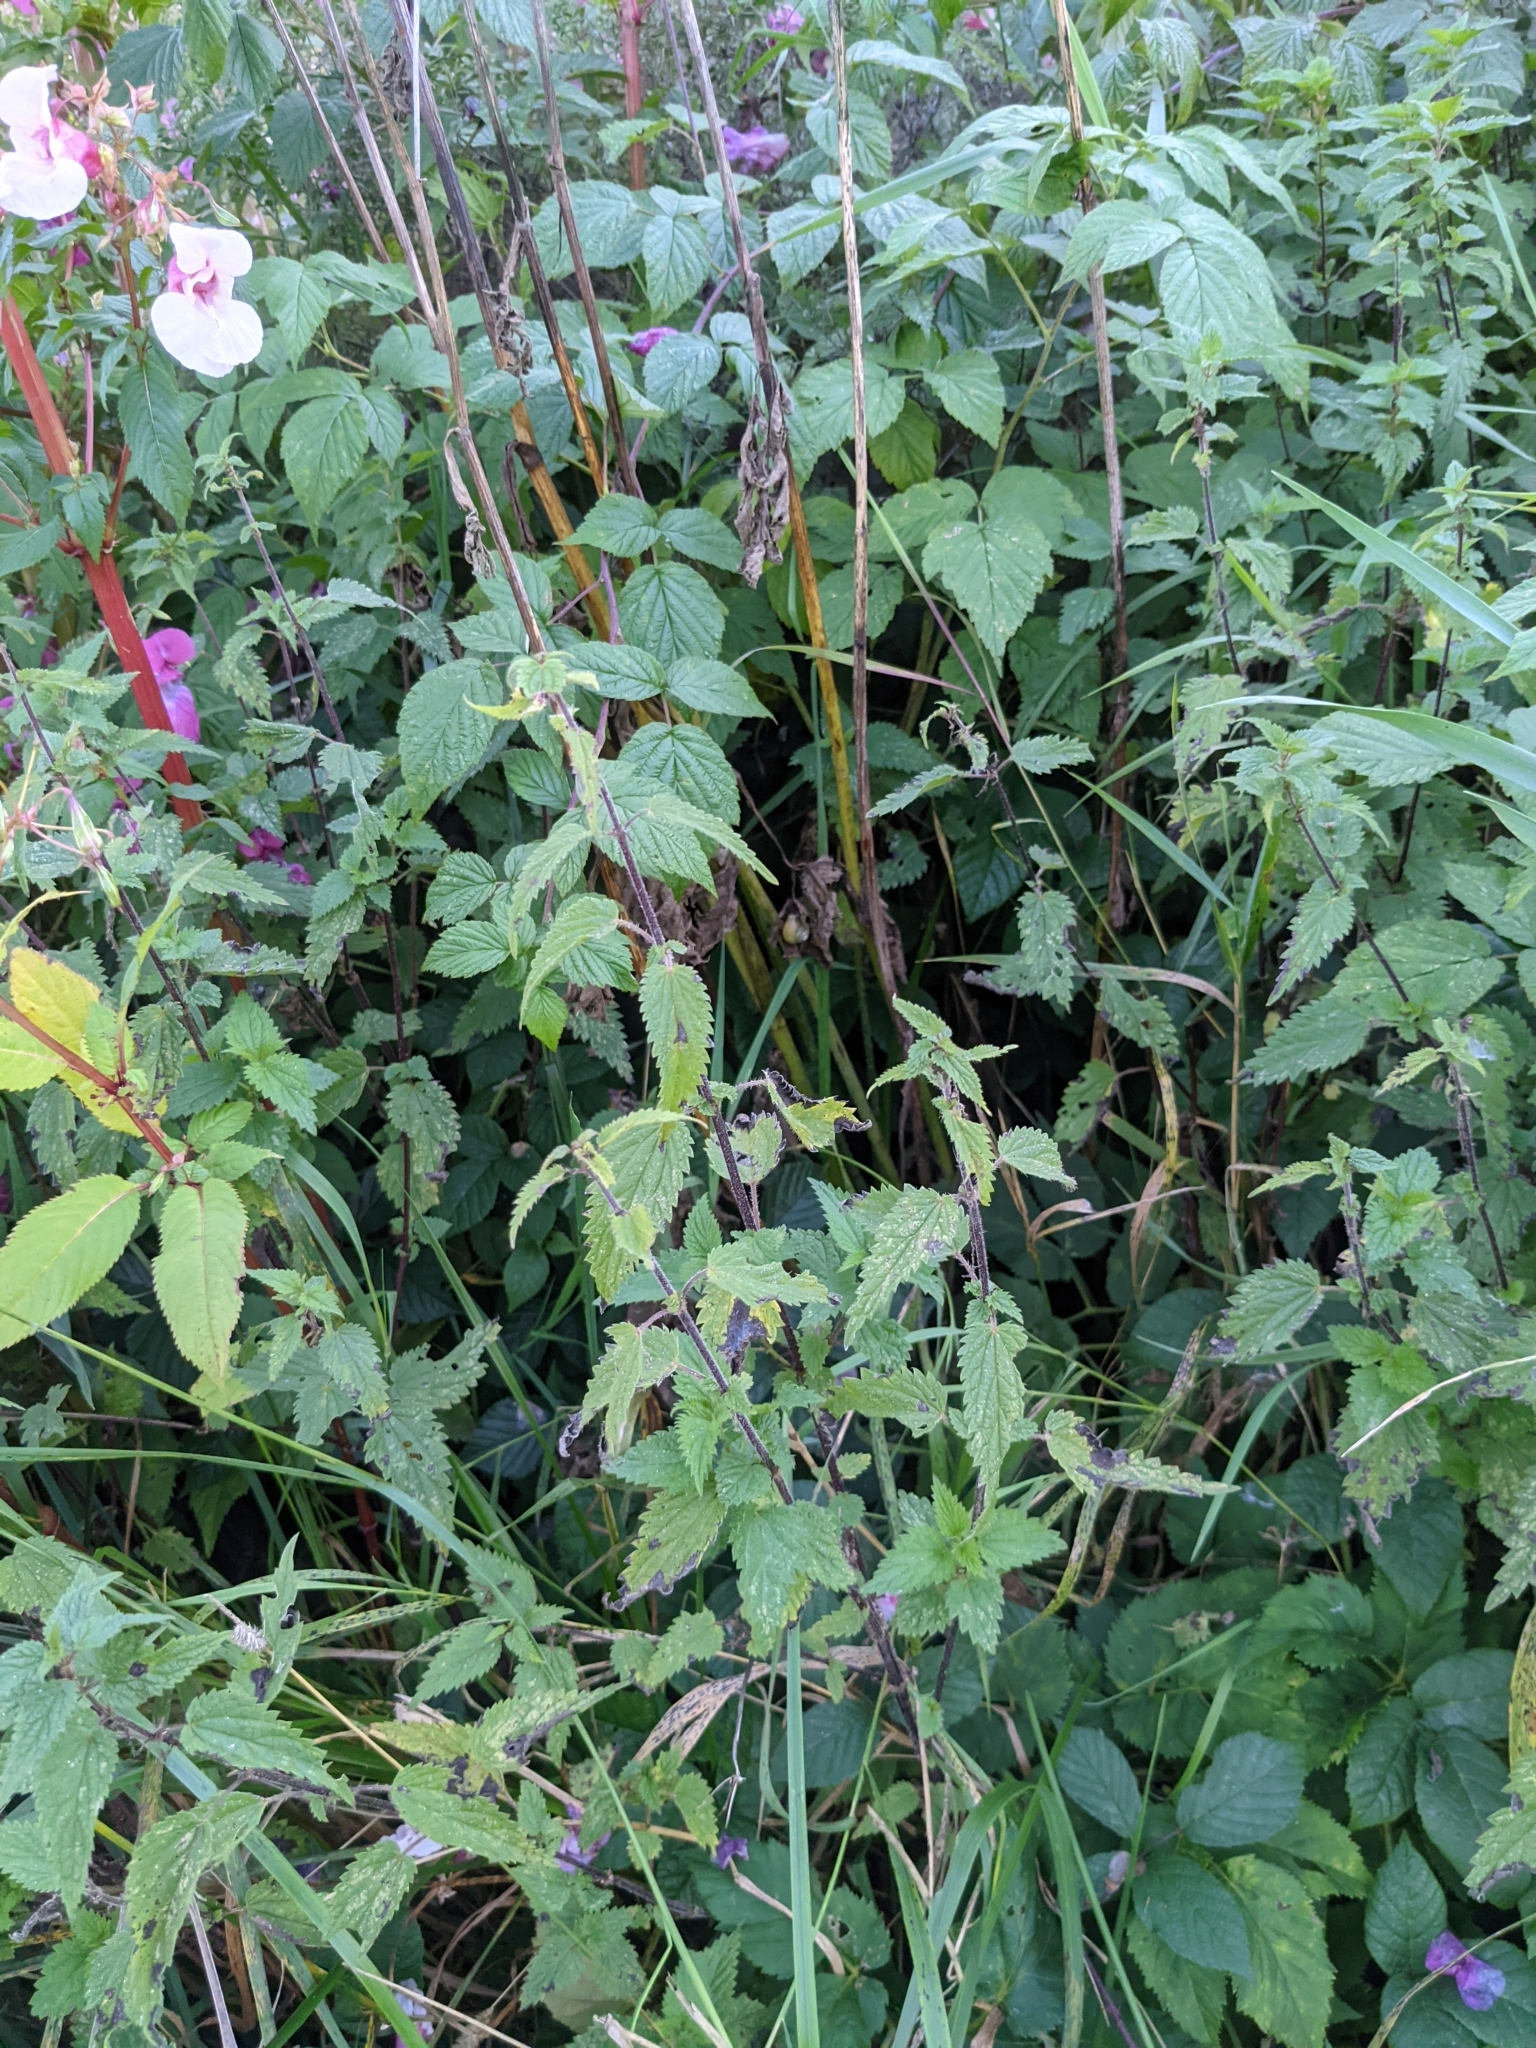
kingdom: Plantae
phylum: Tracheophyta
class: Magnoliopsida
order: Rosales
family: Urticaceae
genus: Urtica
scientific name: Urtica dioica
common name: Common nettle
